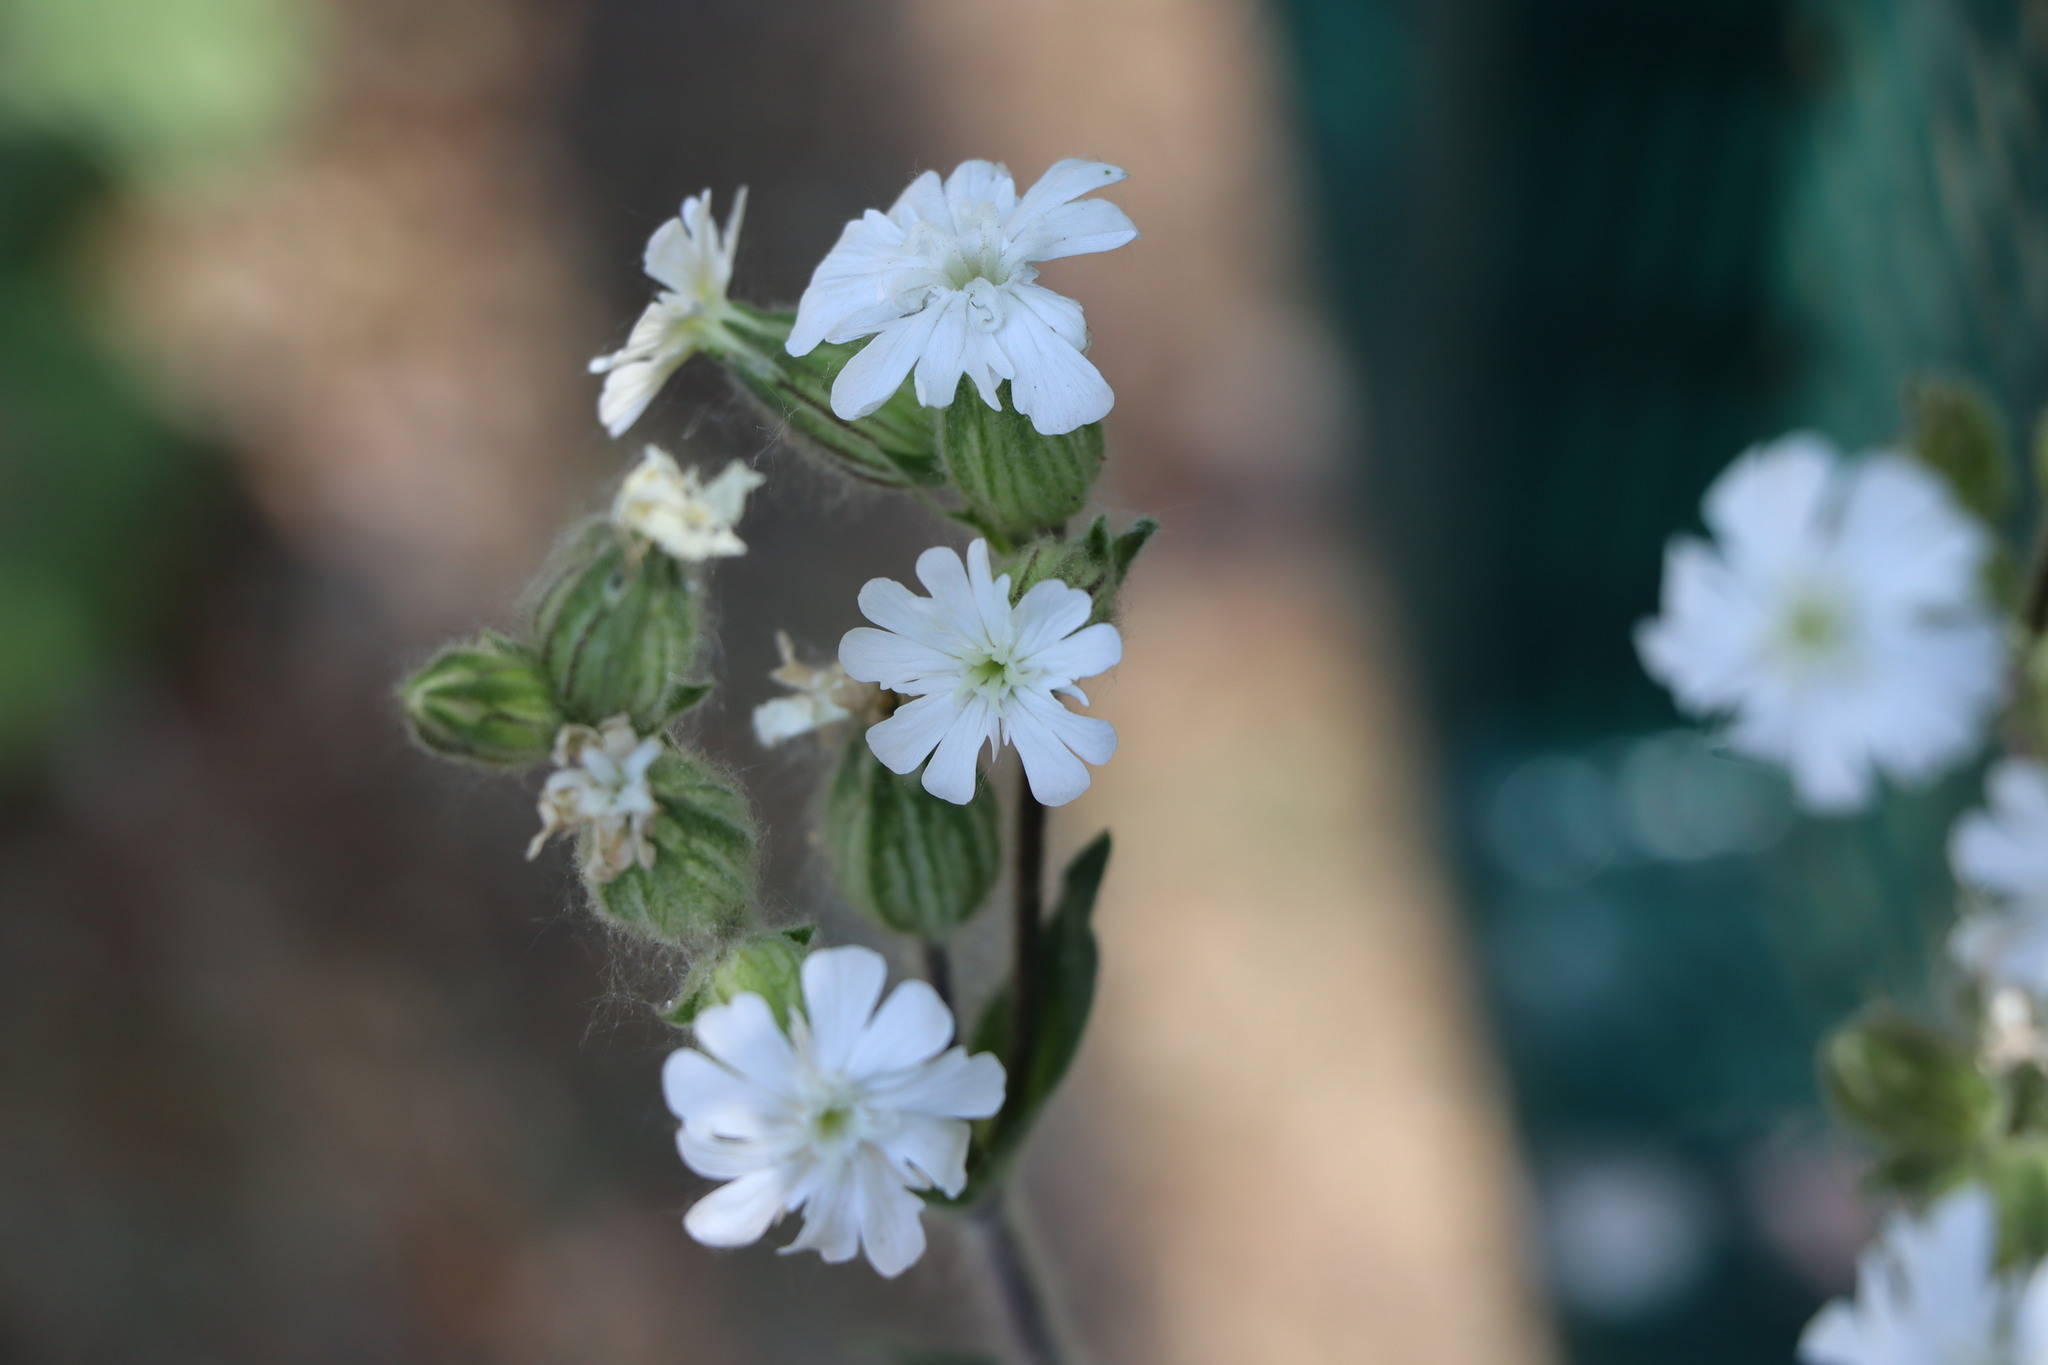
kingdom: Plantae
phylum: Tracheophyta
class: Magnoliopsida
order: Caryophyllales
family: Caryophyllaceae
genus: Silene
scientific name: Silene latifolia
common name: White campion
